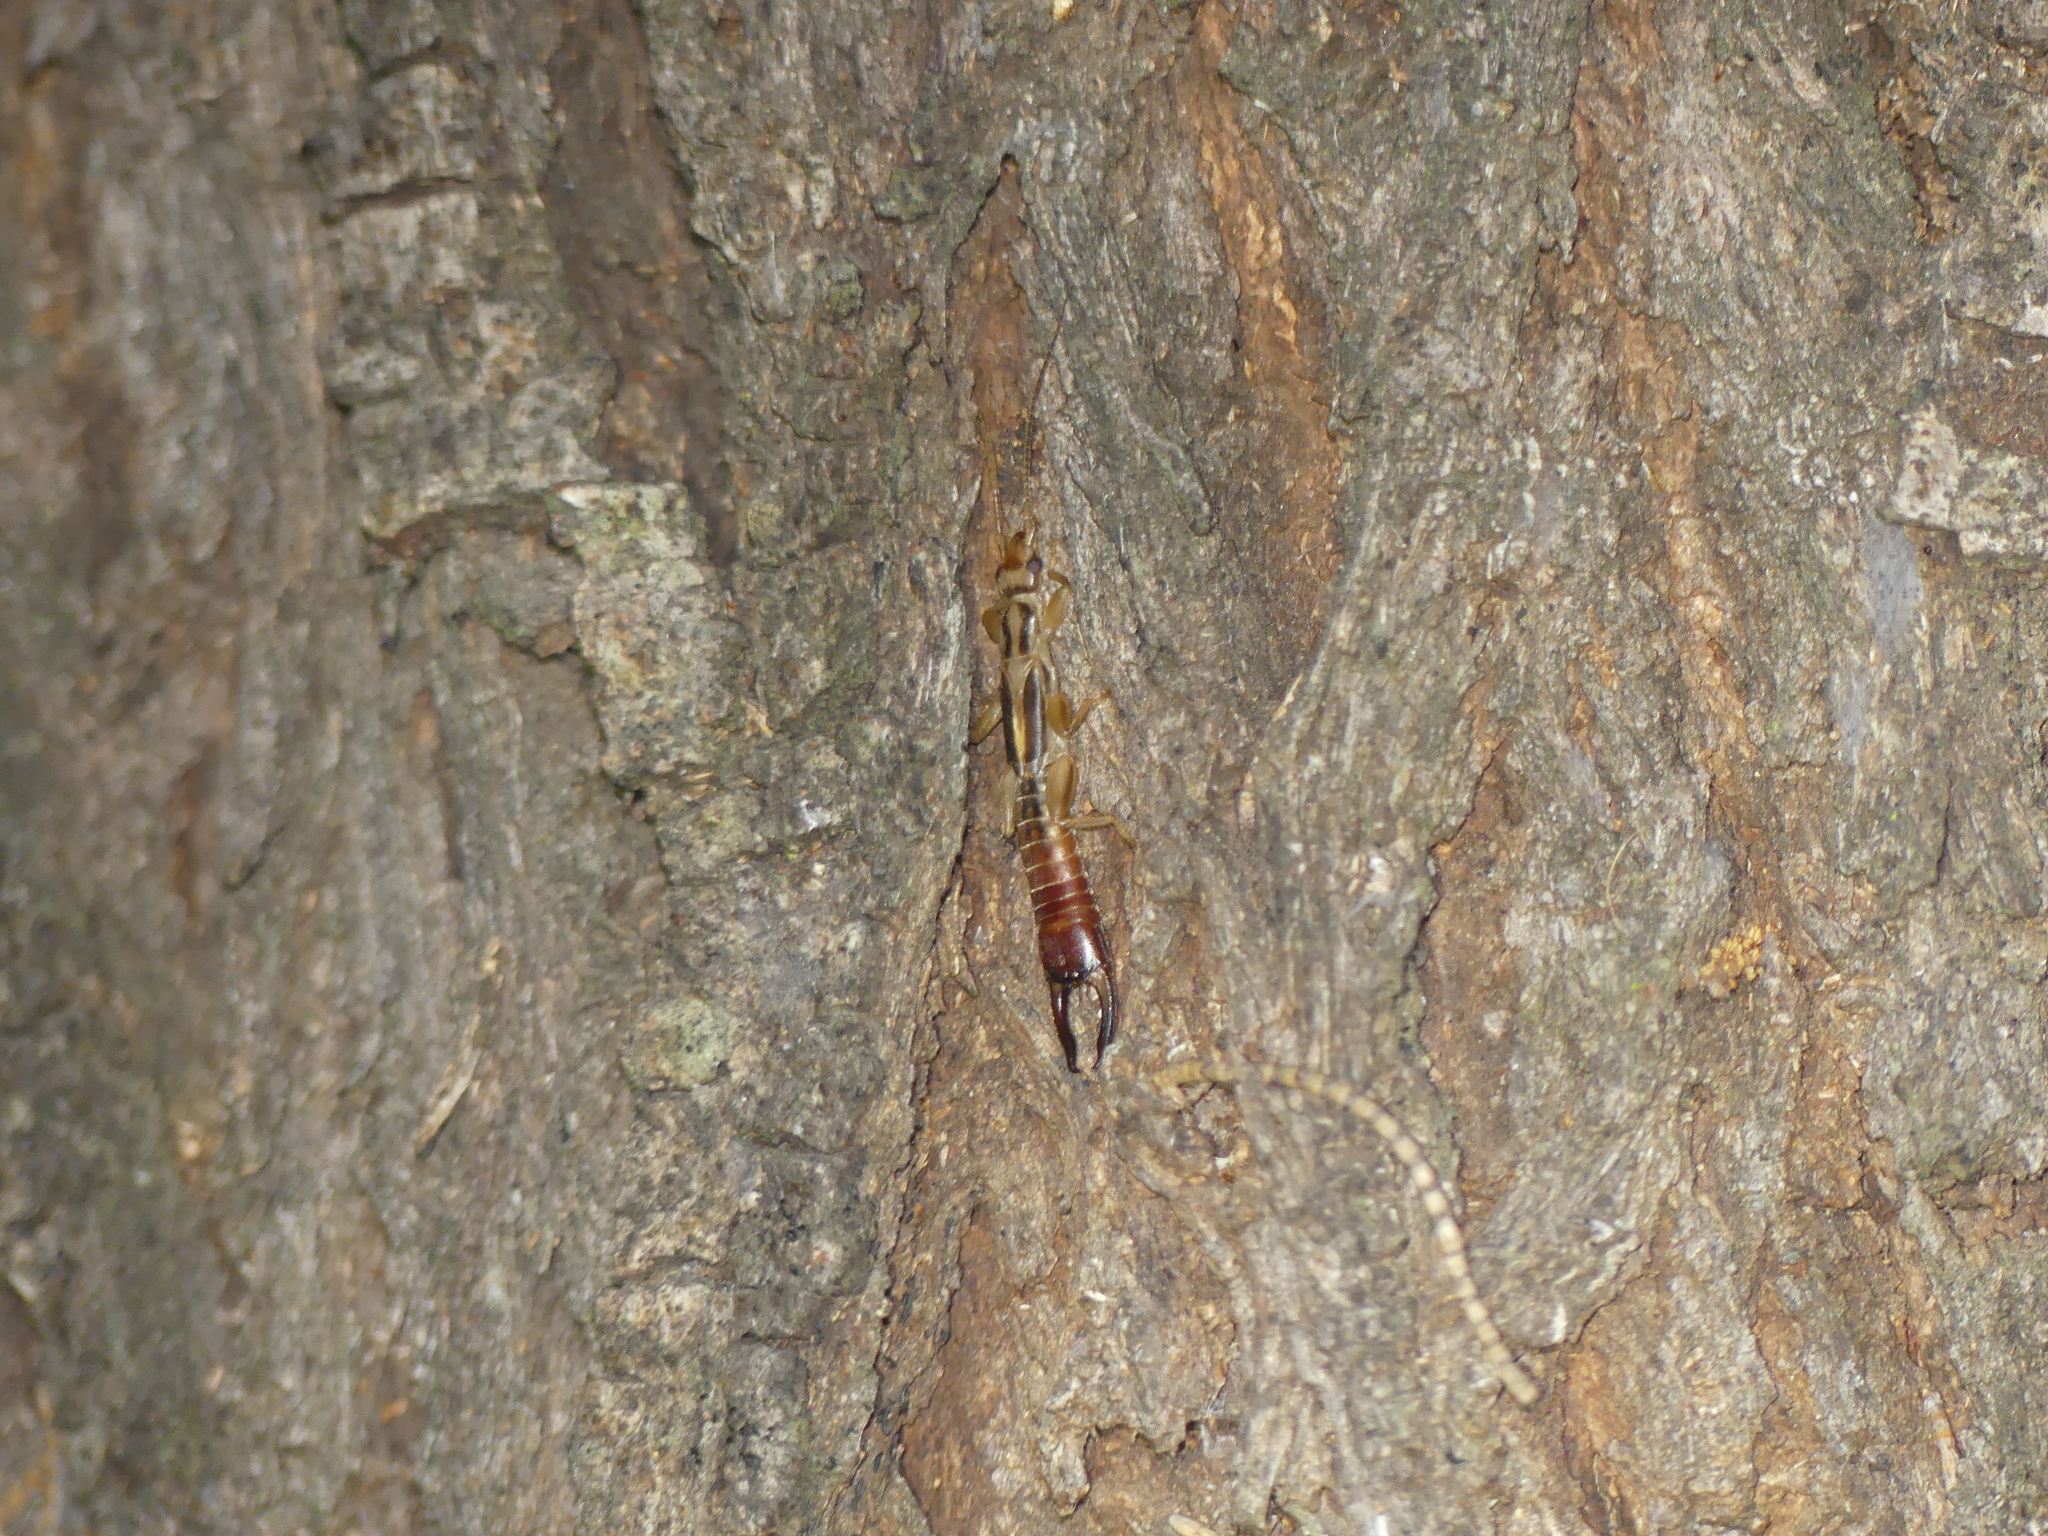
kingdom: Animalia
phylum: Arthropoda
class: Insecta
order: Dermaptera
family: Pygidicranidae
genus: Dacnodes
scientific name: Dacnodes shortridgei
